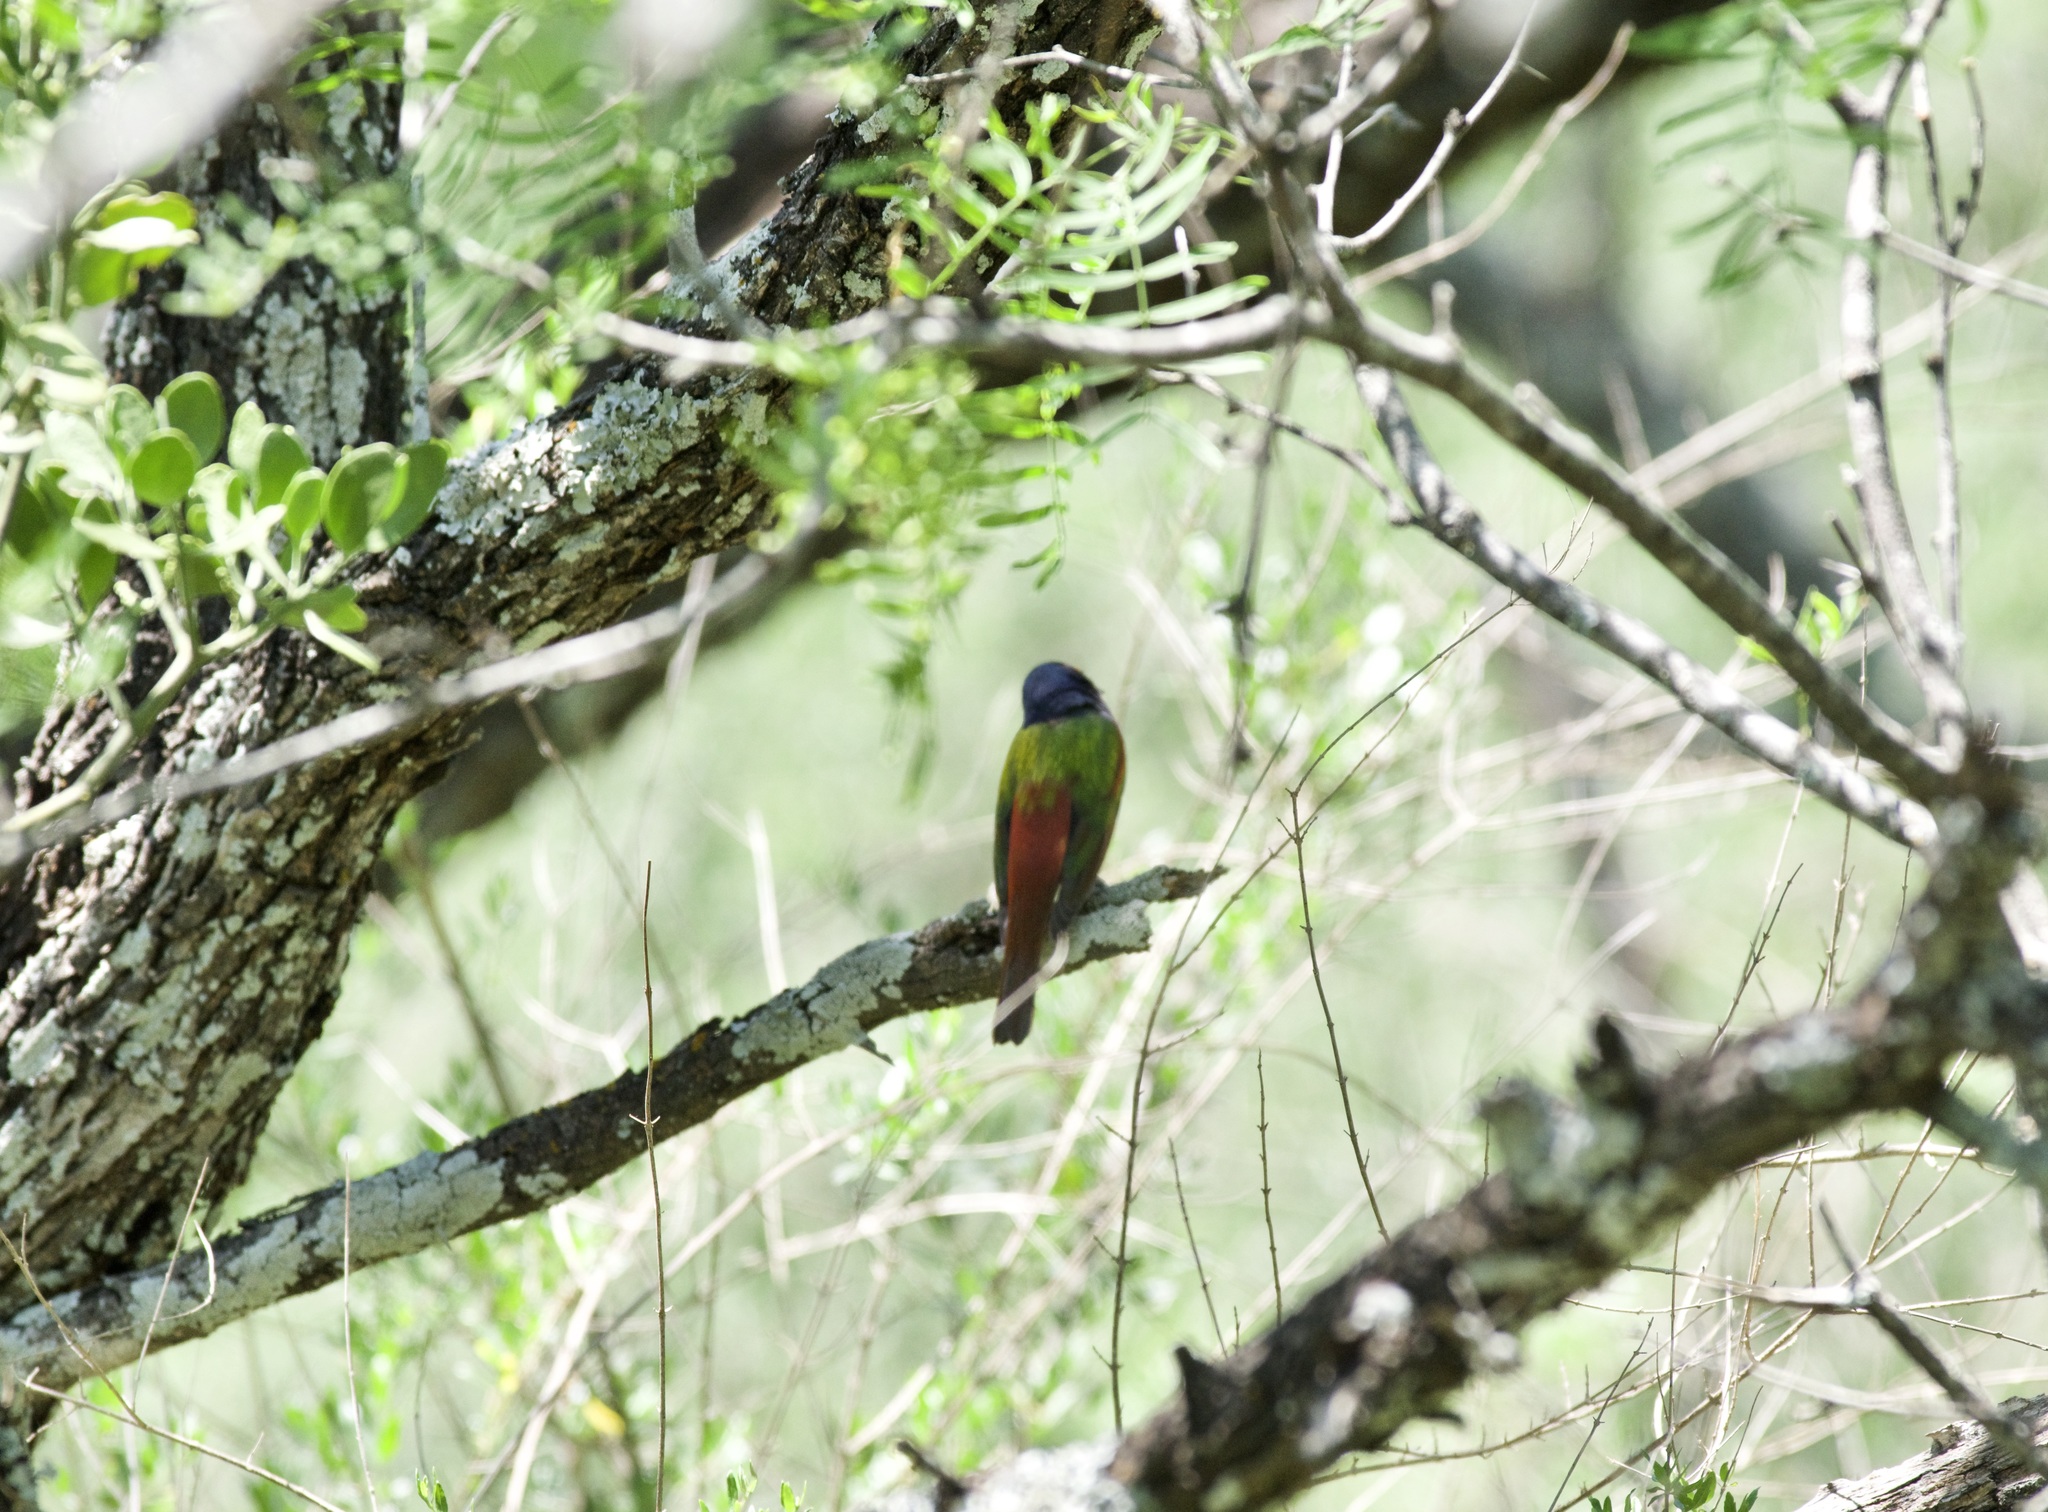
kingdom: Animalia
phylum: Chordata
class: Aves
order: Passeriformes
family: Cardinalidae
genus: Passerina
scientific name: Passerina ciris
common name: Painted bunting
